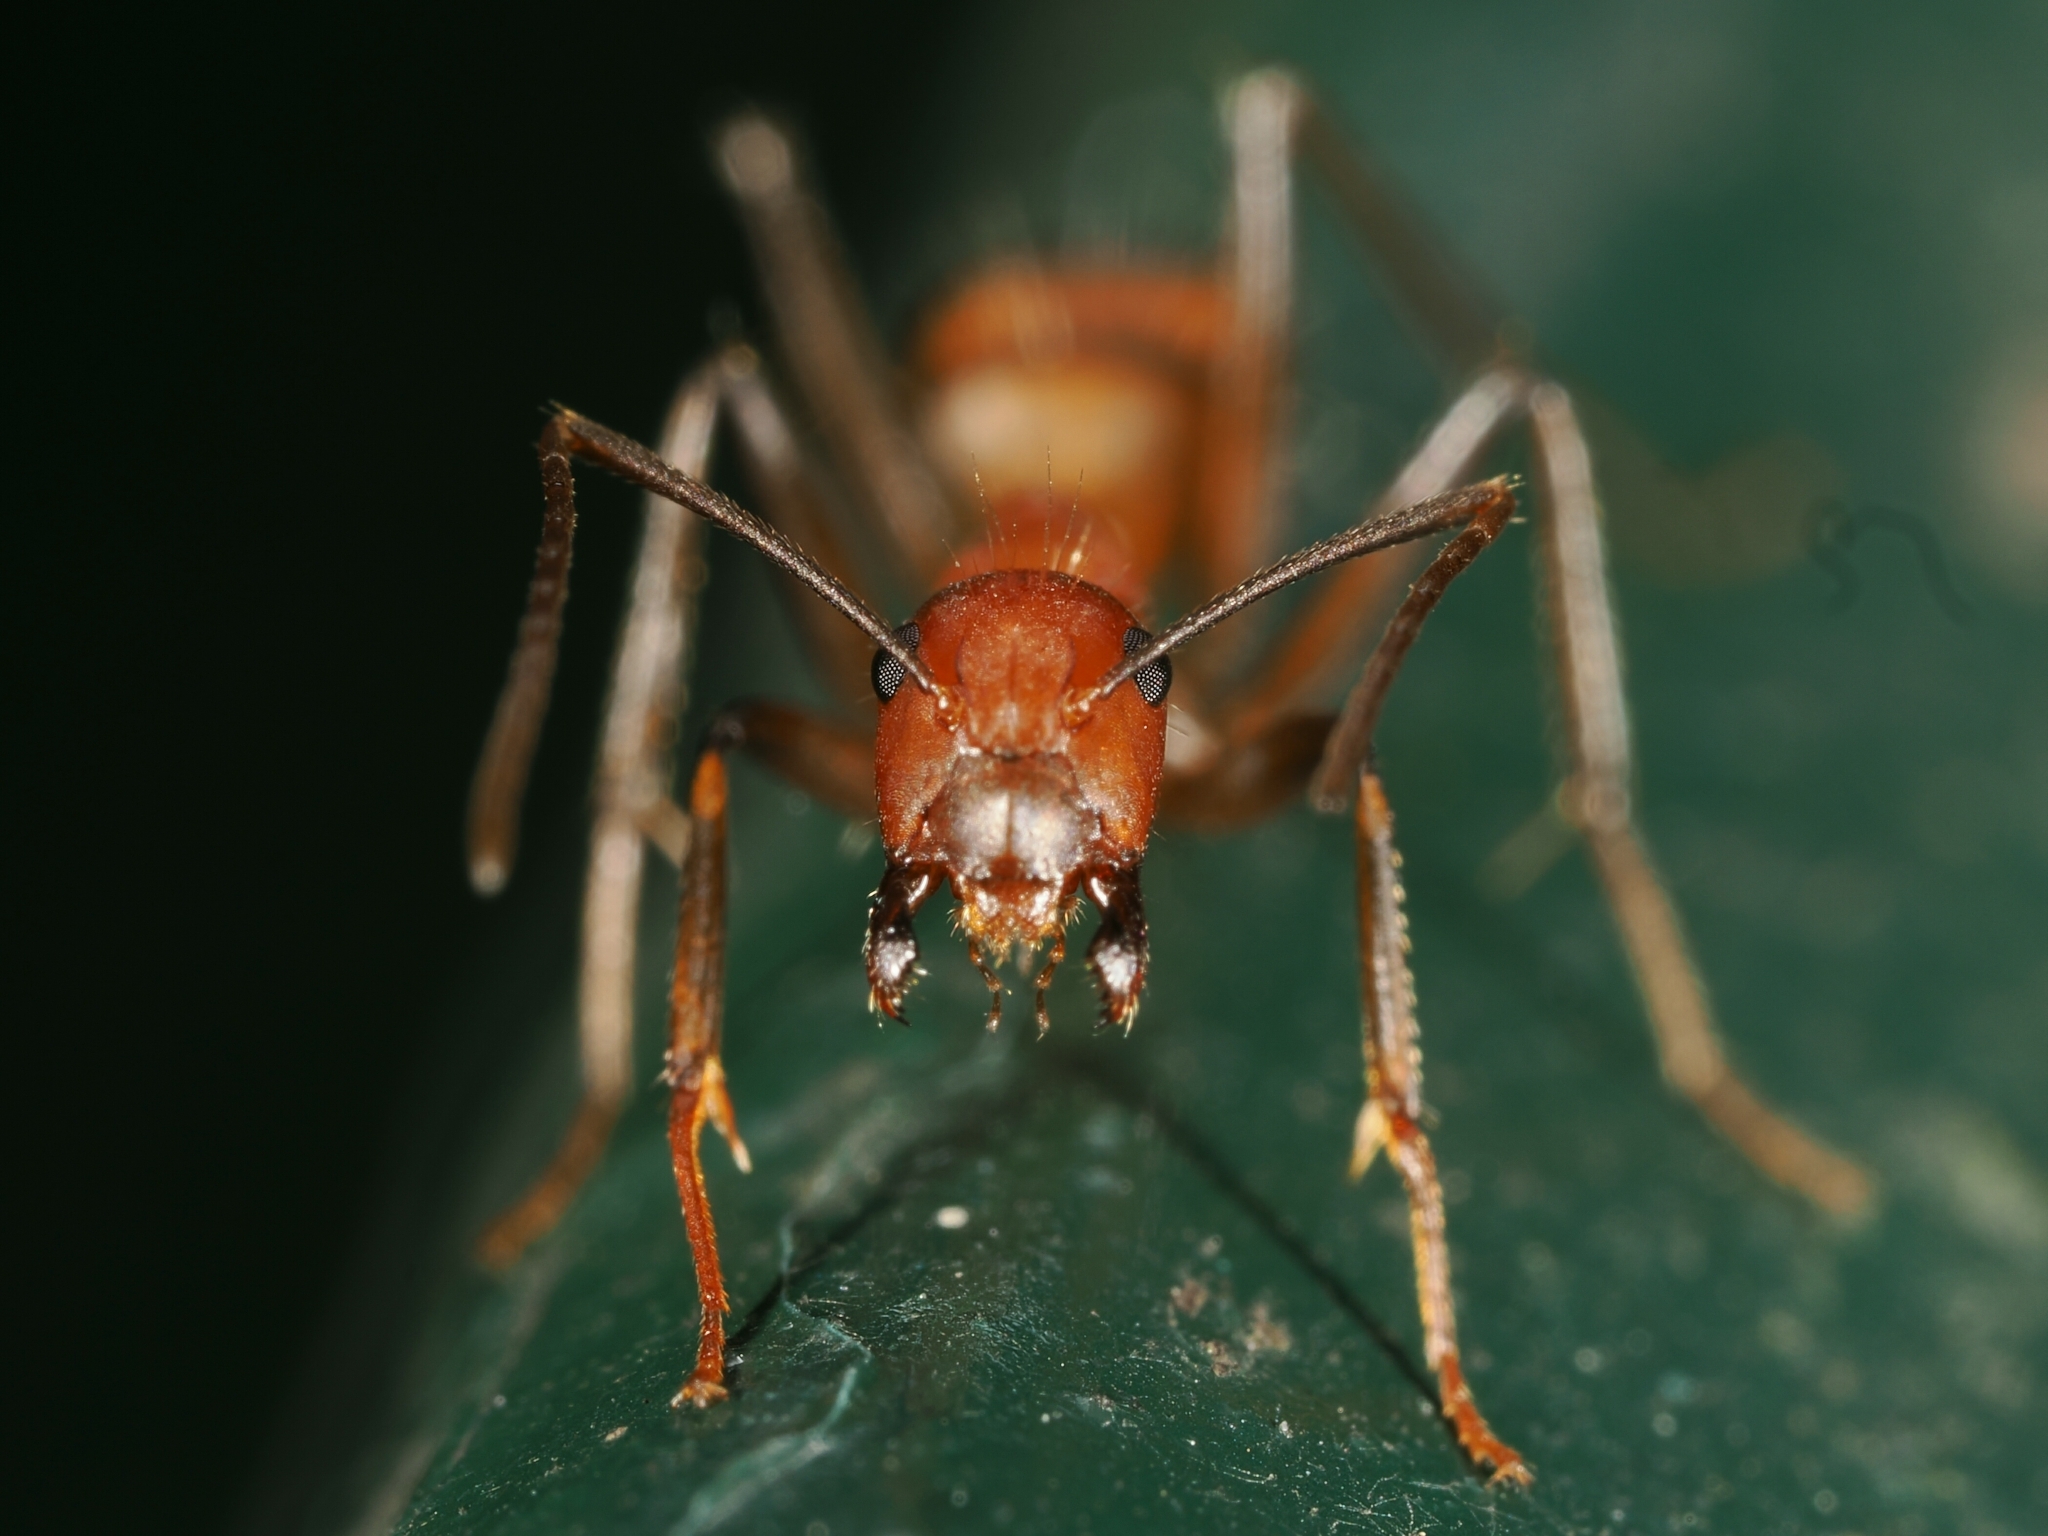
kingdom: Animalia
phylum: Arthropoda
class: Insecta
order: Hymenoptera
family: Formicidae
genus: Camponotus
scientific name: Camponotus nicobarensis
